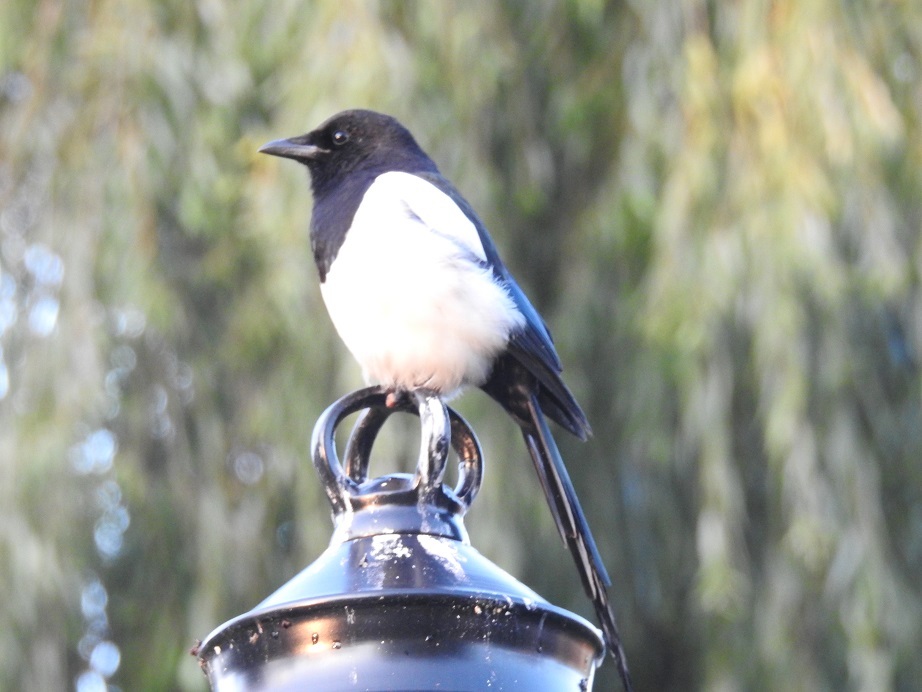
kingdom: Animalia
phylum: Chordata
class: Aves
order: Passeriformes
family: Corvidae
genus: Pica
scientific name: Pica pica
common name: Eurasian magpie
